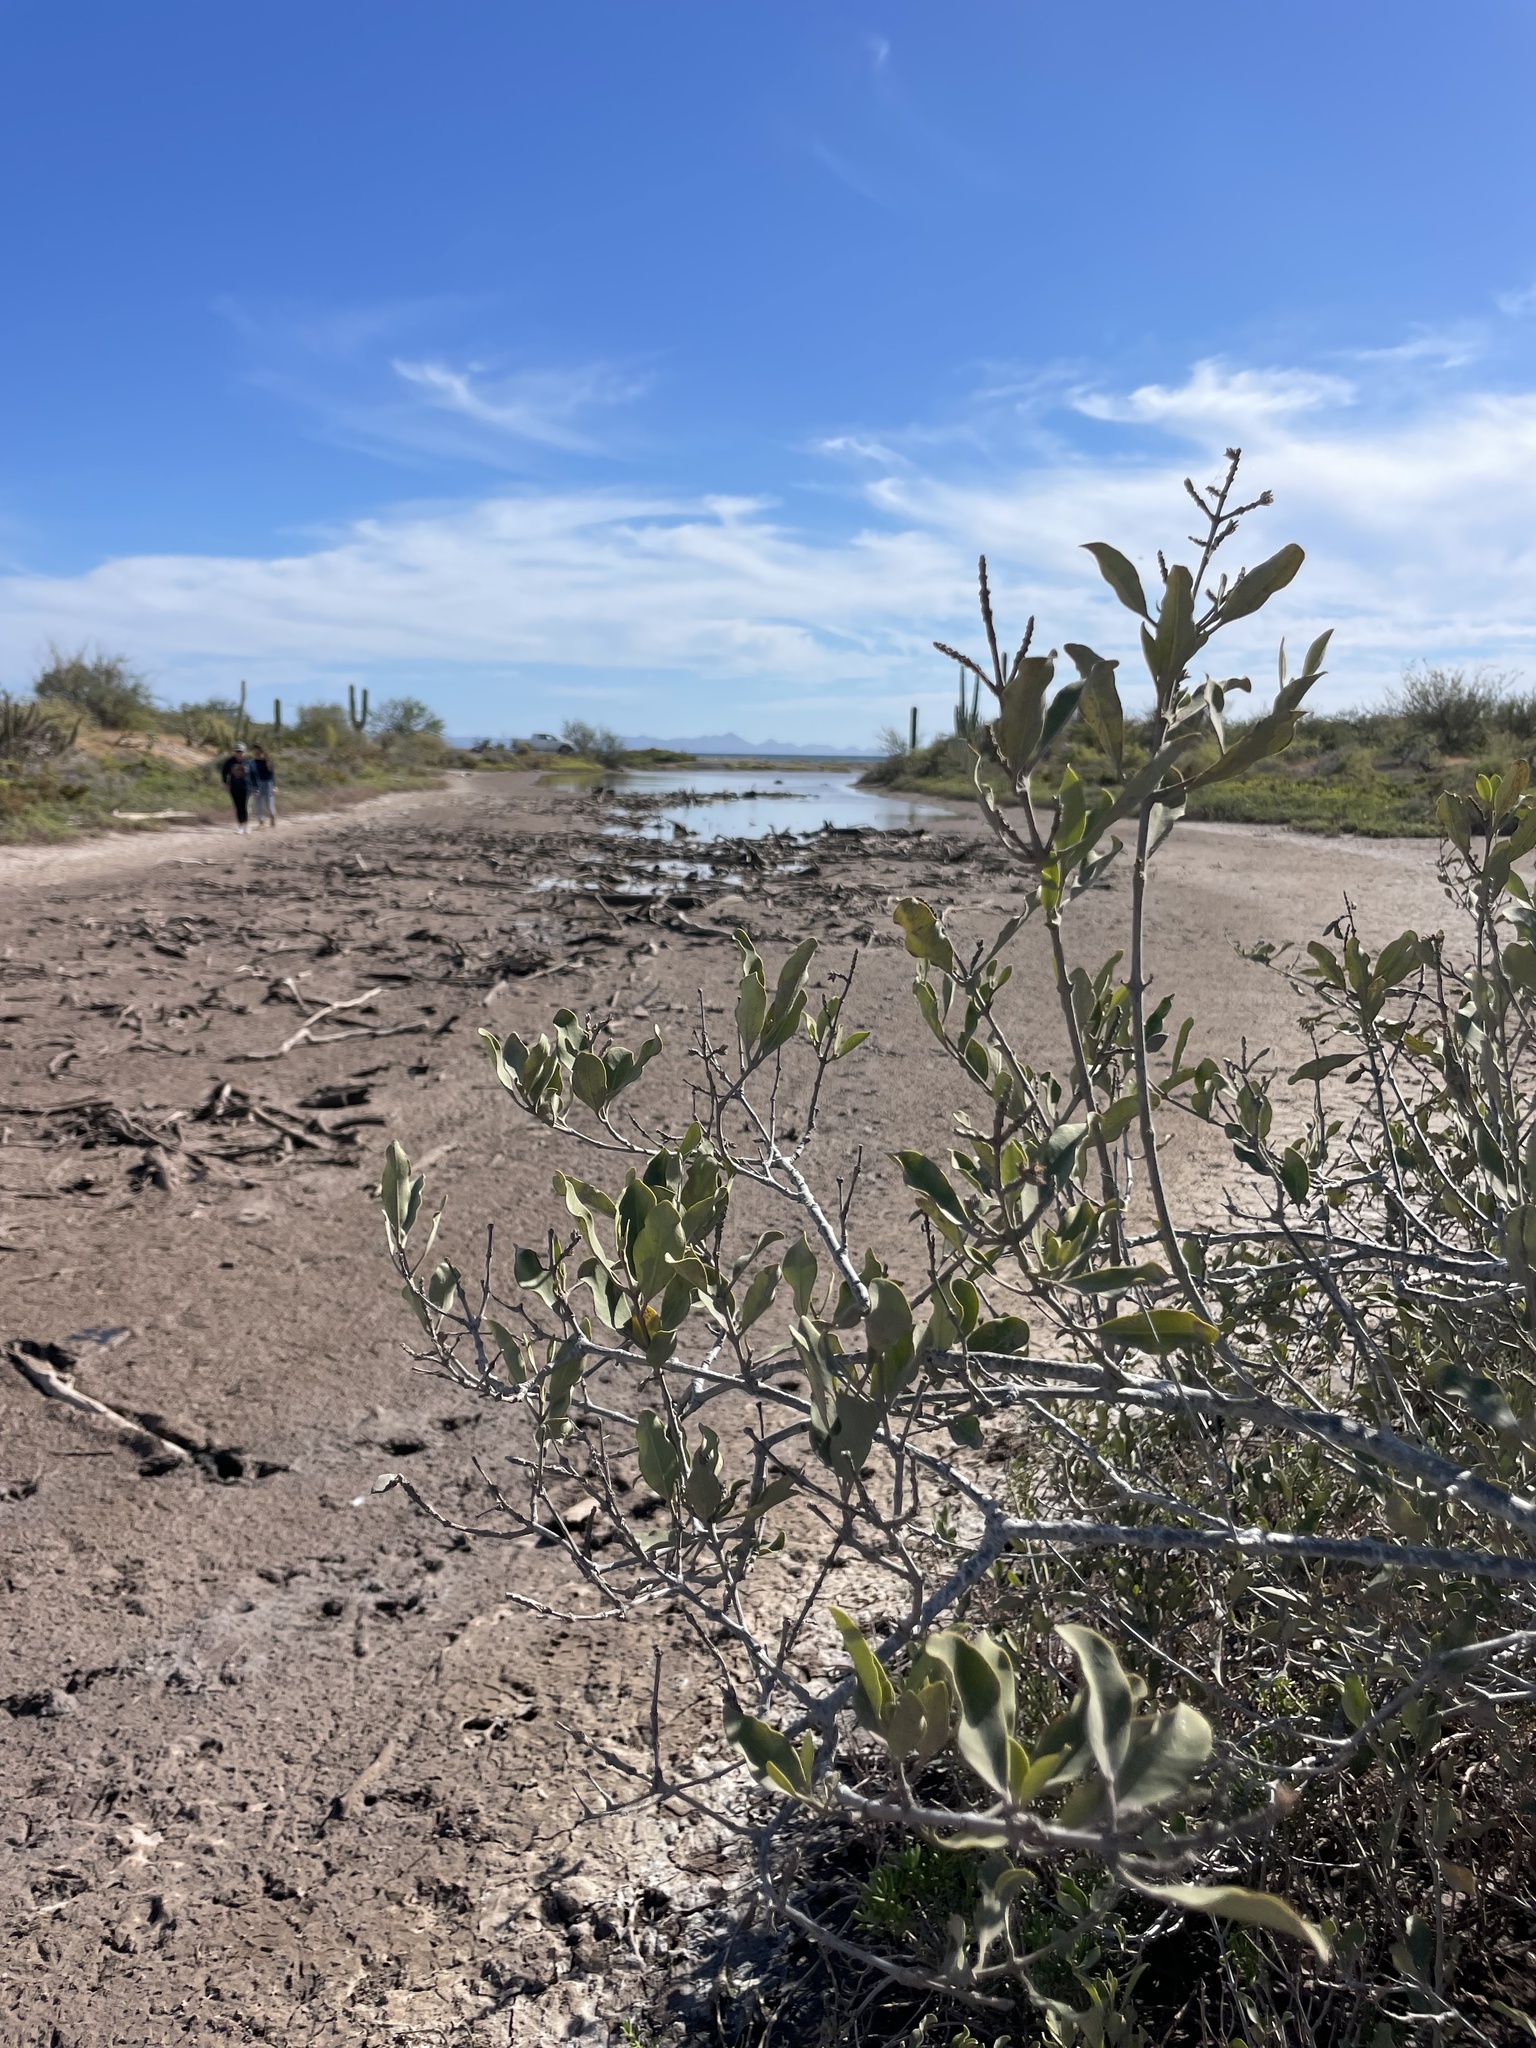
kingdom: Plantae
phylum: Tracheophyta
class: Magnoliopsida
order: Lamiales
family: Acanthaceae
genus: Avicennia
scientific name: Avicennia germinans
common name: Black mangrove
